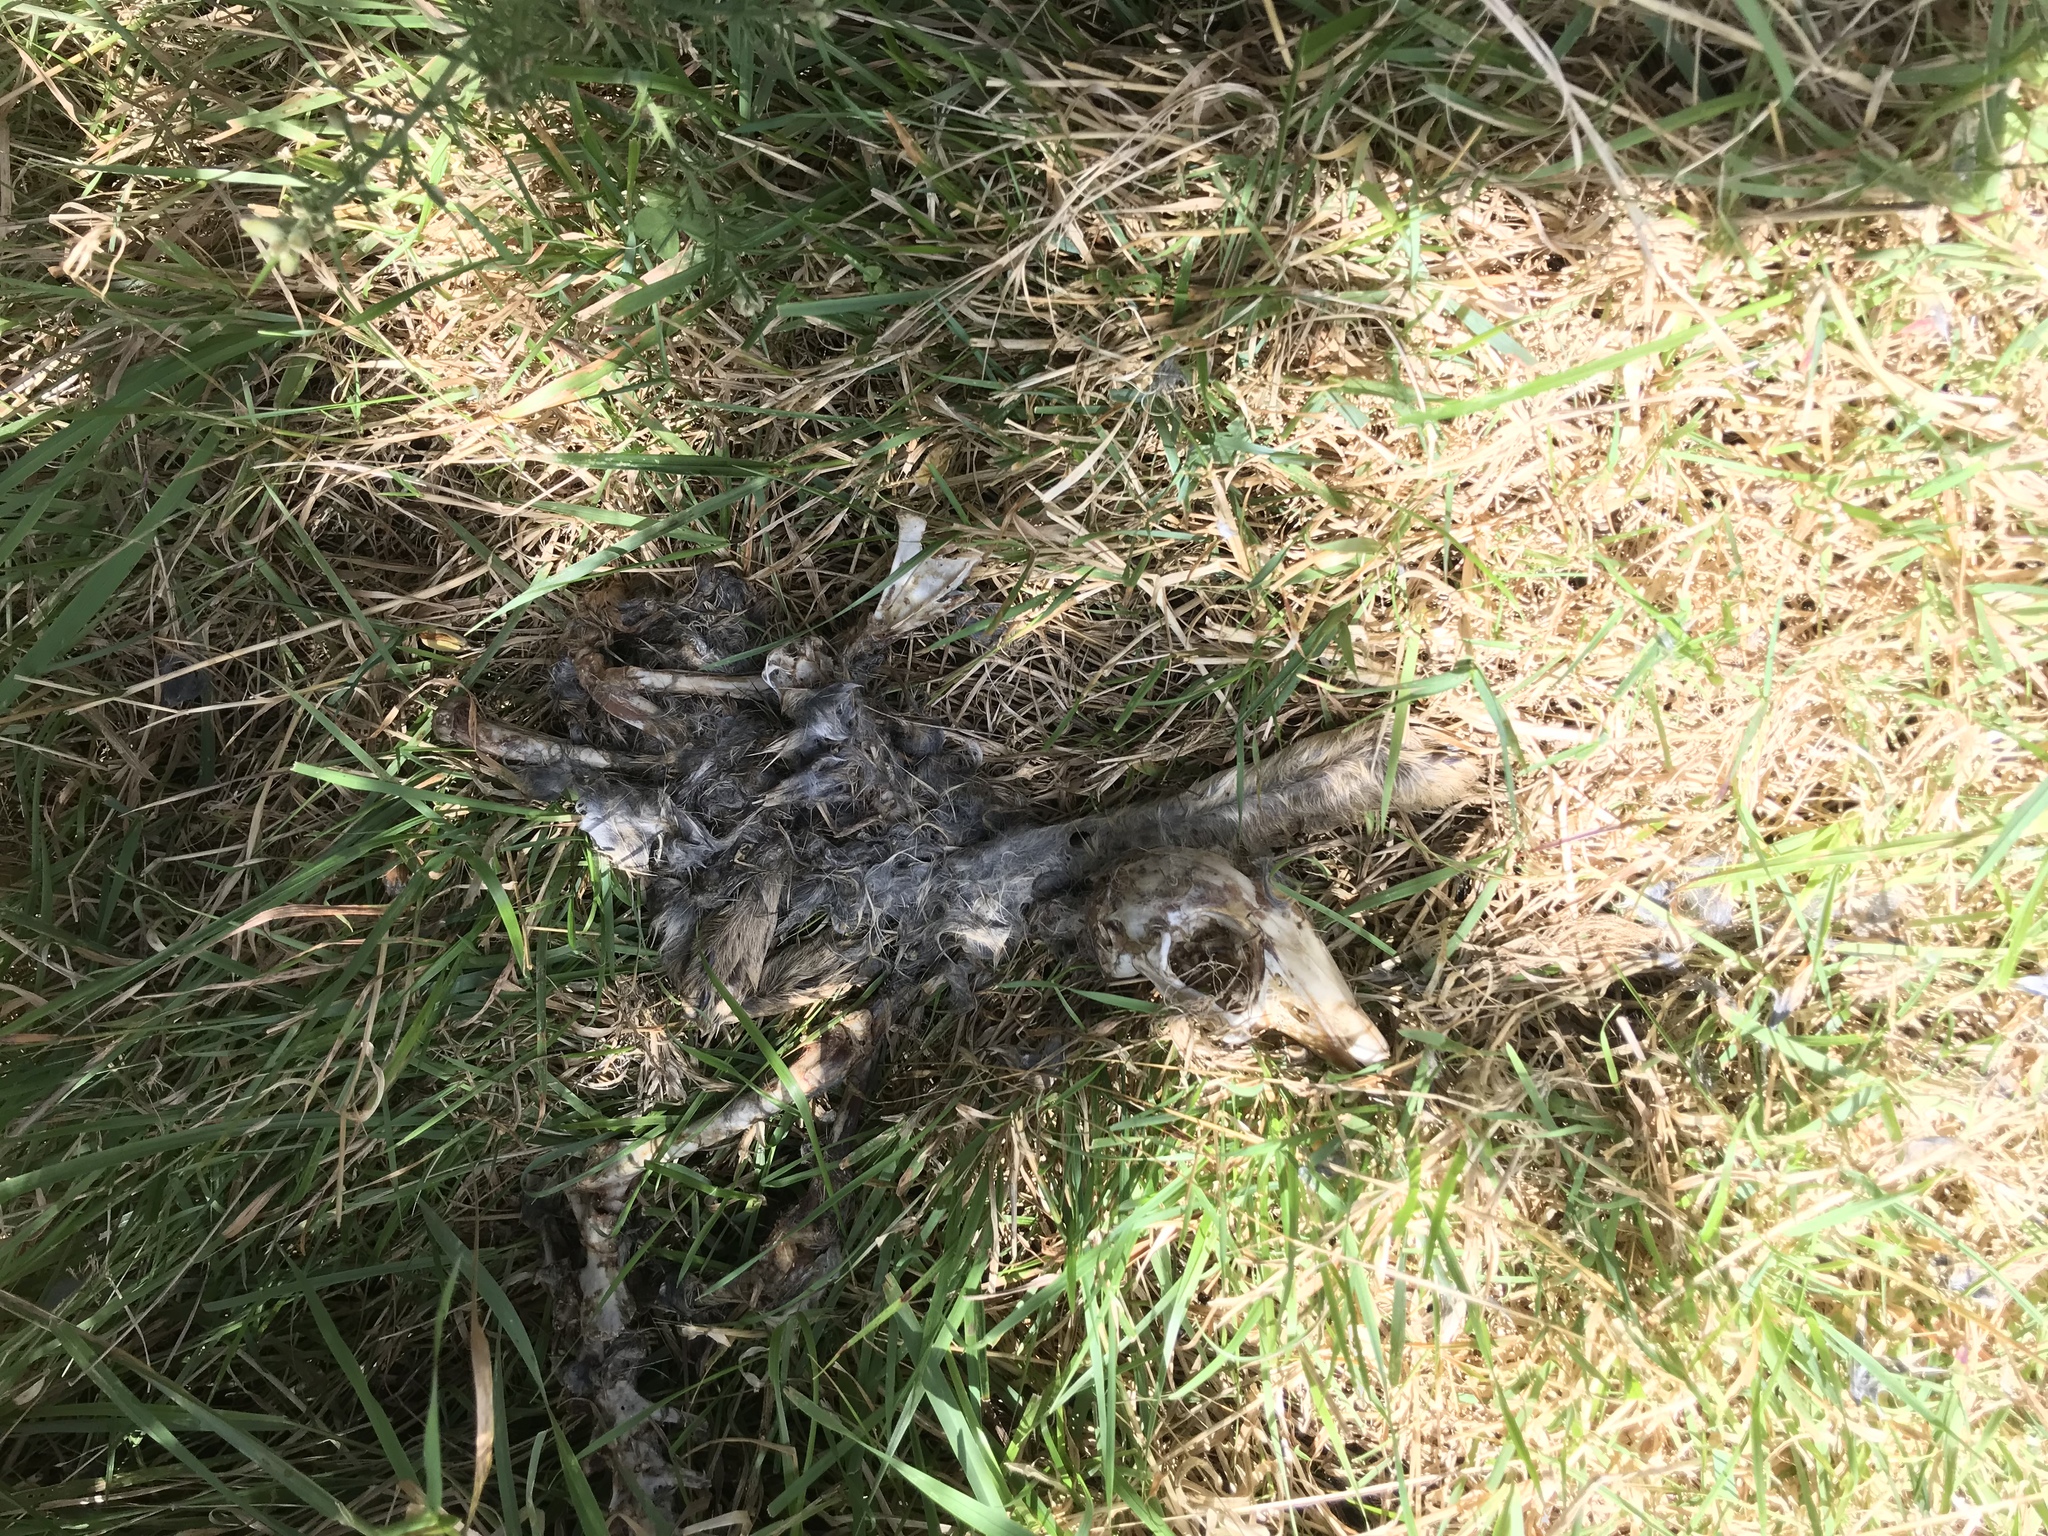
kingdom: Animalia
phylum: Chordata
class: Mammalia
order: Lagomorpha
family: Leporidae
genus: Oryctolagus
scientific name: Oryctolagus cuniculus
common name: European rabbit
